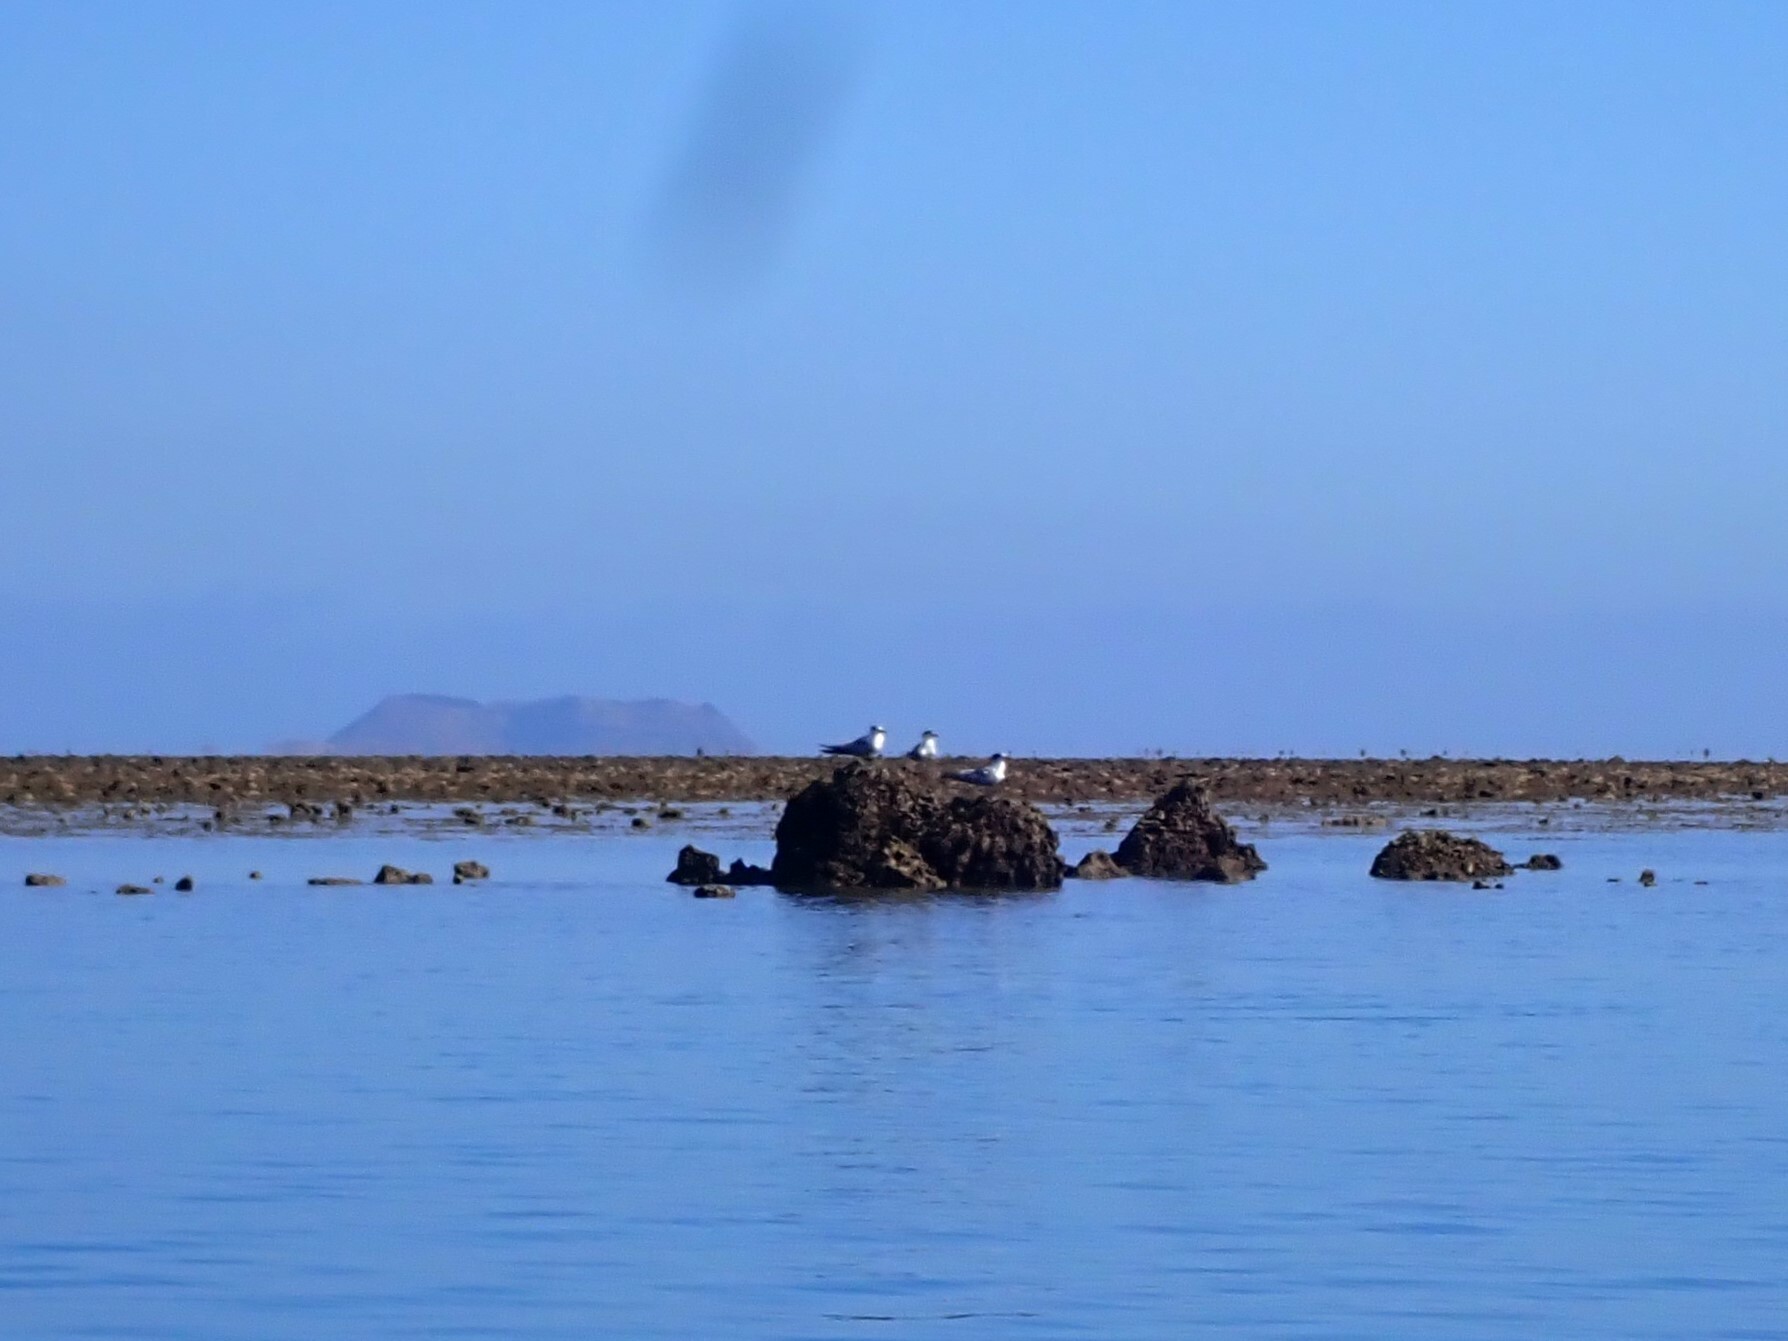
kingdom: Animalia
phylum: Chordata
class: Aves
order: Charadriiformes
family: Laridae
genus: Thalasseus
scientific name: Thalasseus bergii
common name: Greater crested tern
